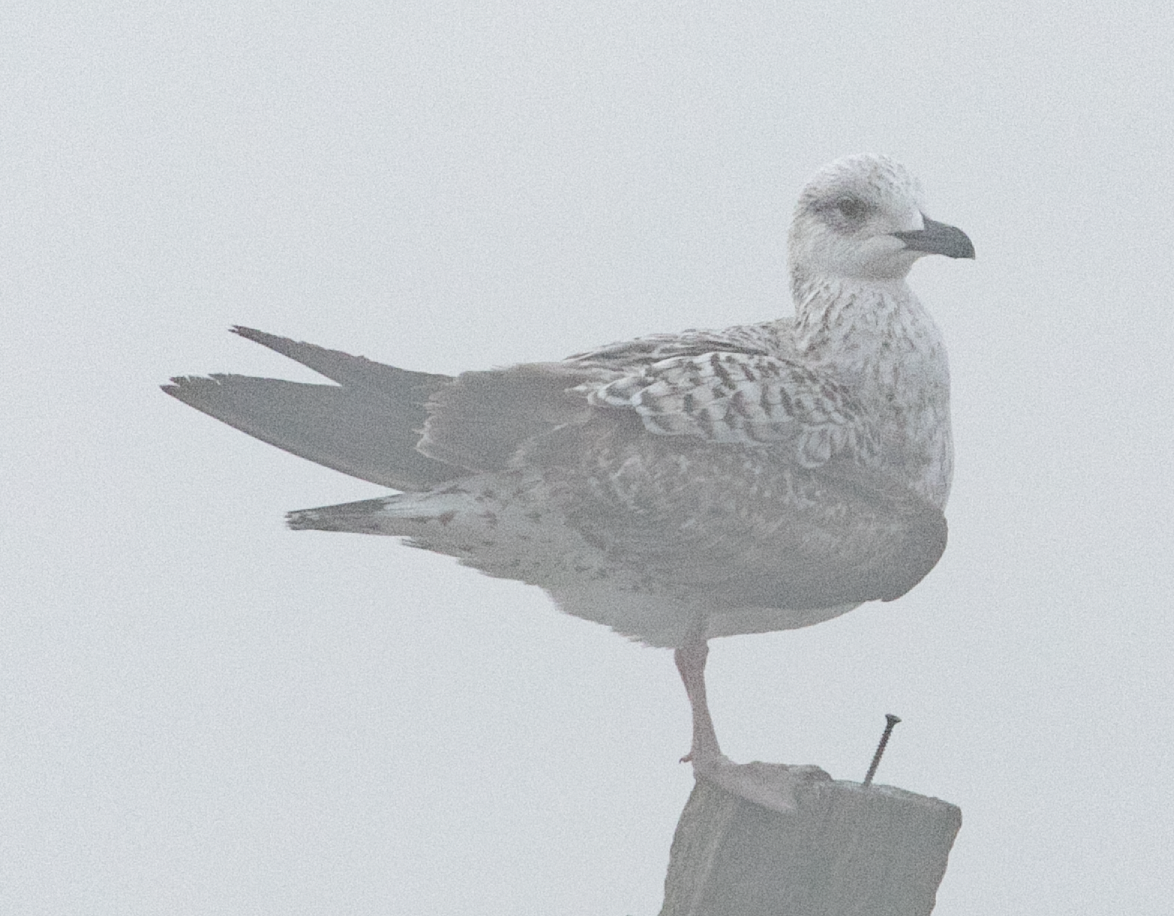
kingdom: Animalia
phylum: Chordata
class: Aves
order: Charadriiformes
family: Laridae
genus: Larus
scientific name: Larus michahellis
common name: Yellow-legged gull
